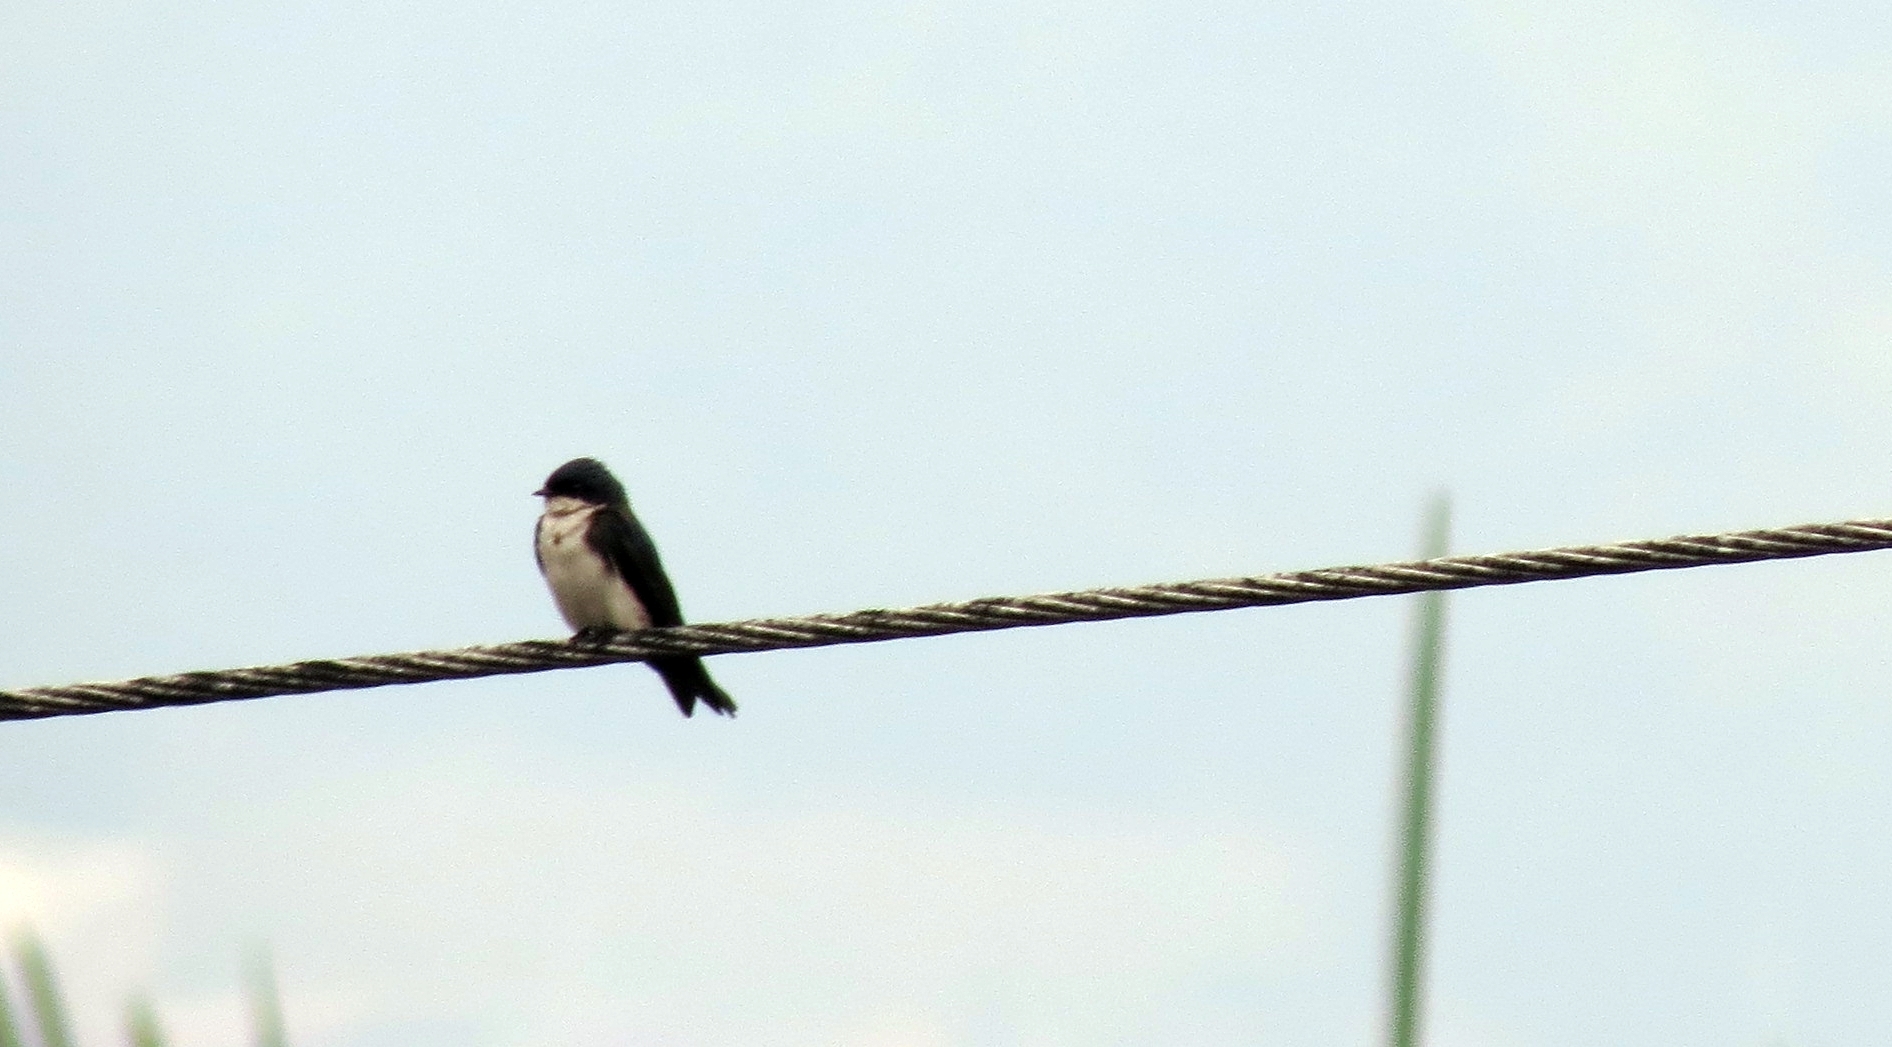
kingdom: Animalia
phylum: Chordata
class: Aves
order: Passeriformes
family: Hirundinidae
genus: Notiochelidon
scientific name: Notiochelidon cyanoleuca
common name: Blue-and-white swallow
